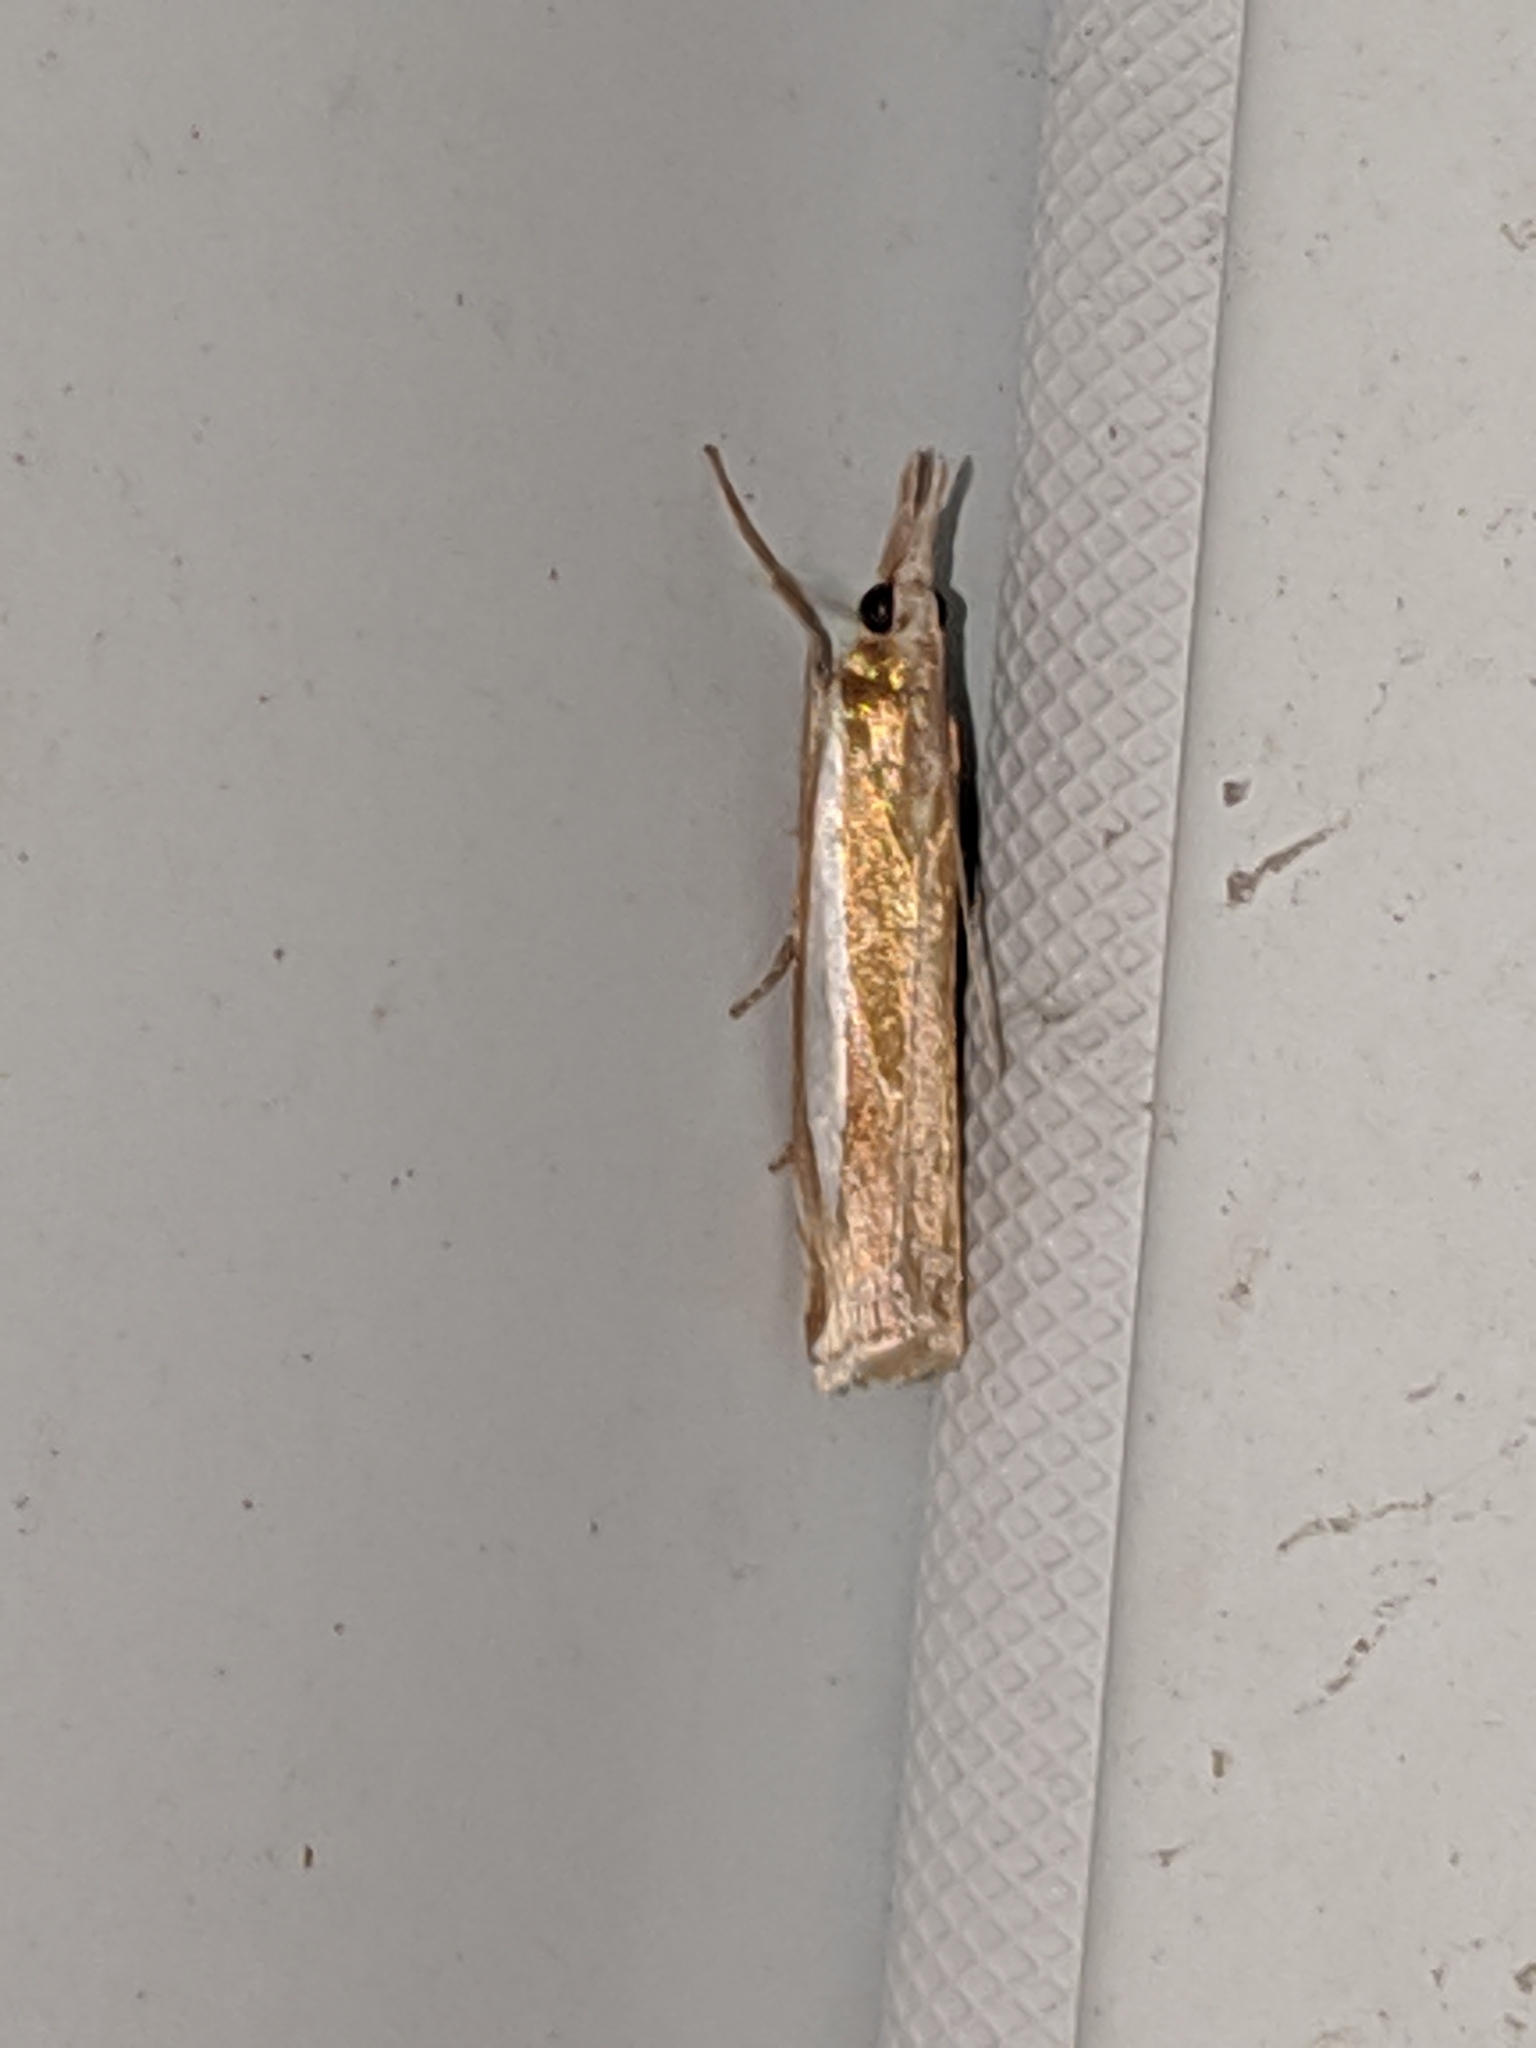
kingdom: Animalia
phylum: Arthropoda
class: Insecta
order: Lepidoptera
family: Crambidae
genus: Crambus
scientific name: Crambus praefectellus
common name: Common grass-veneer
